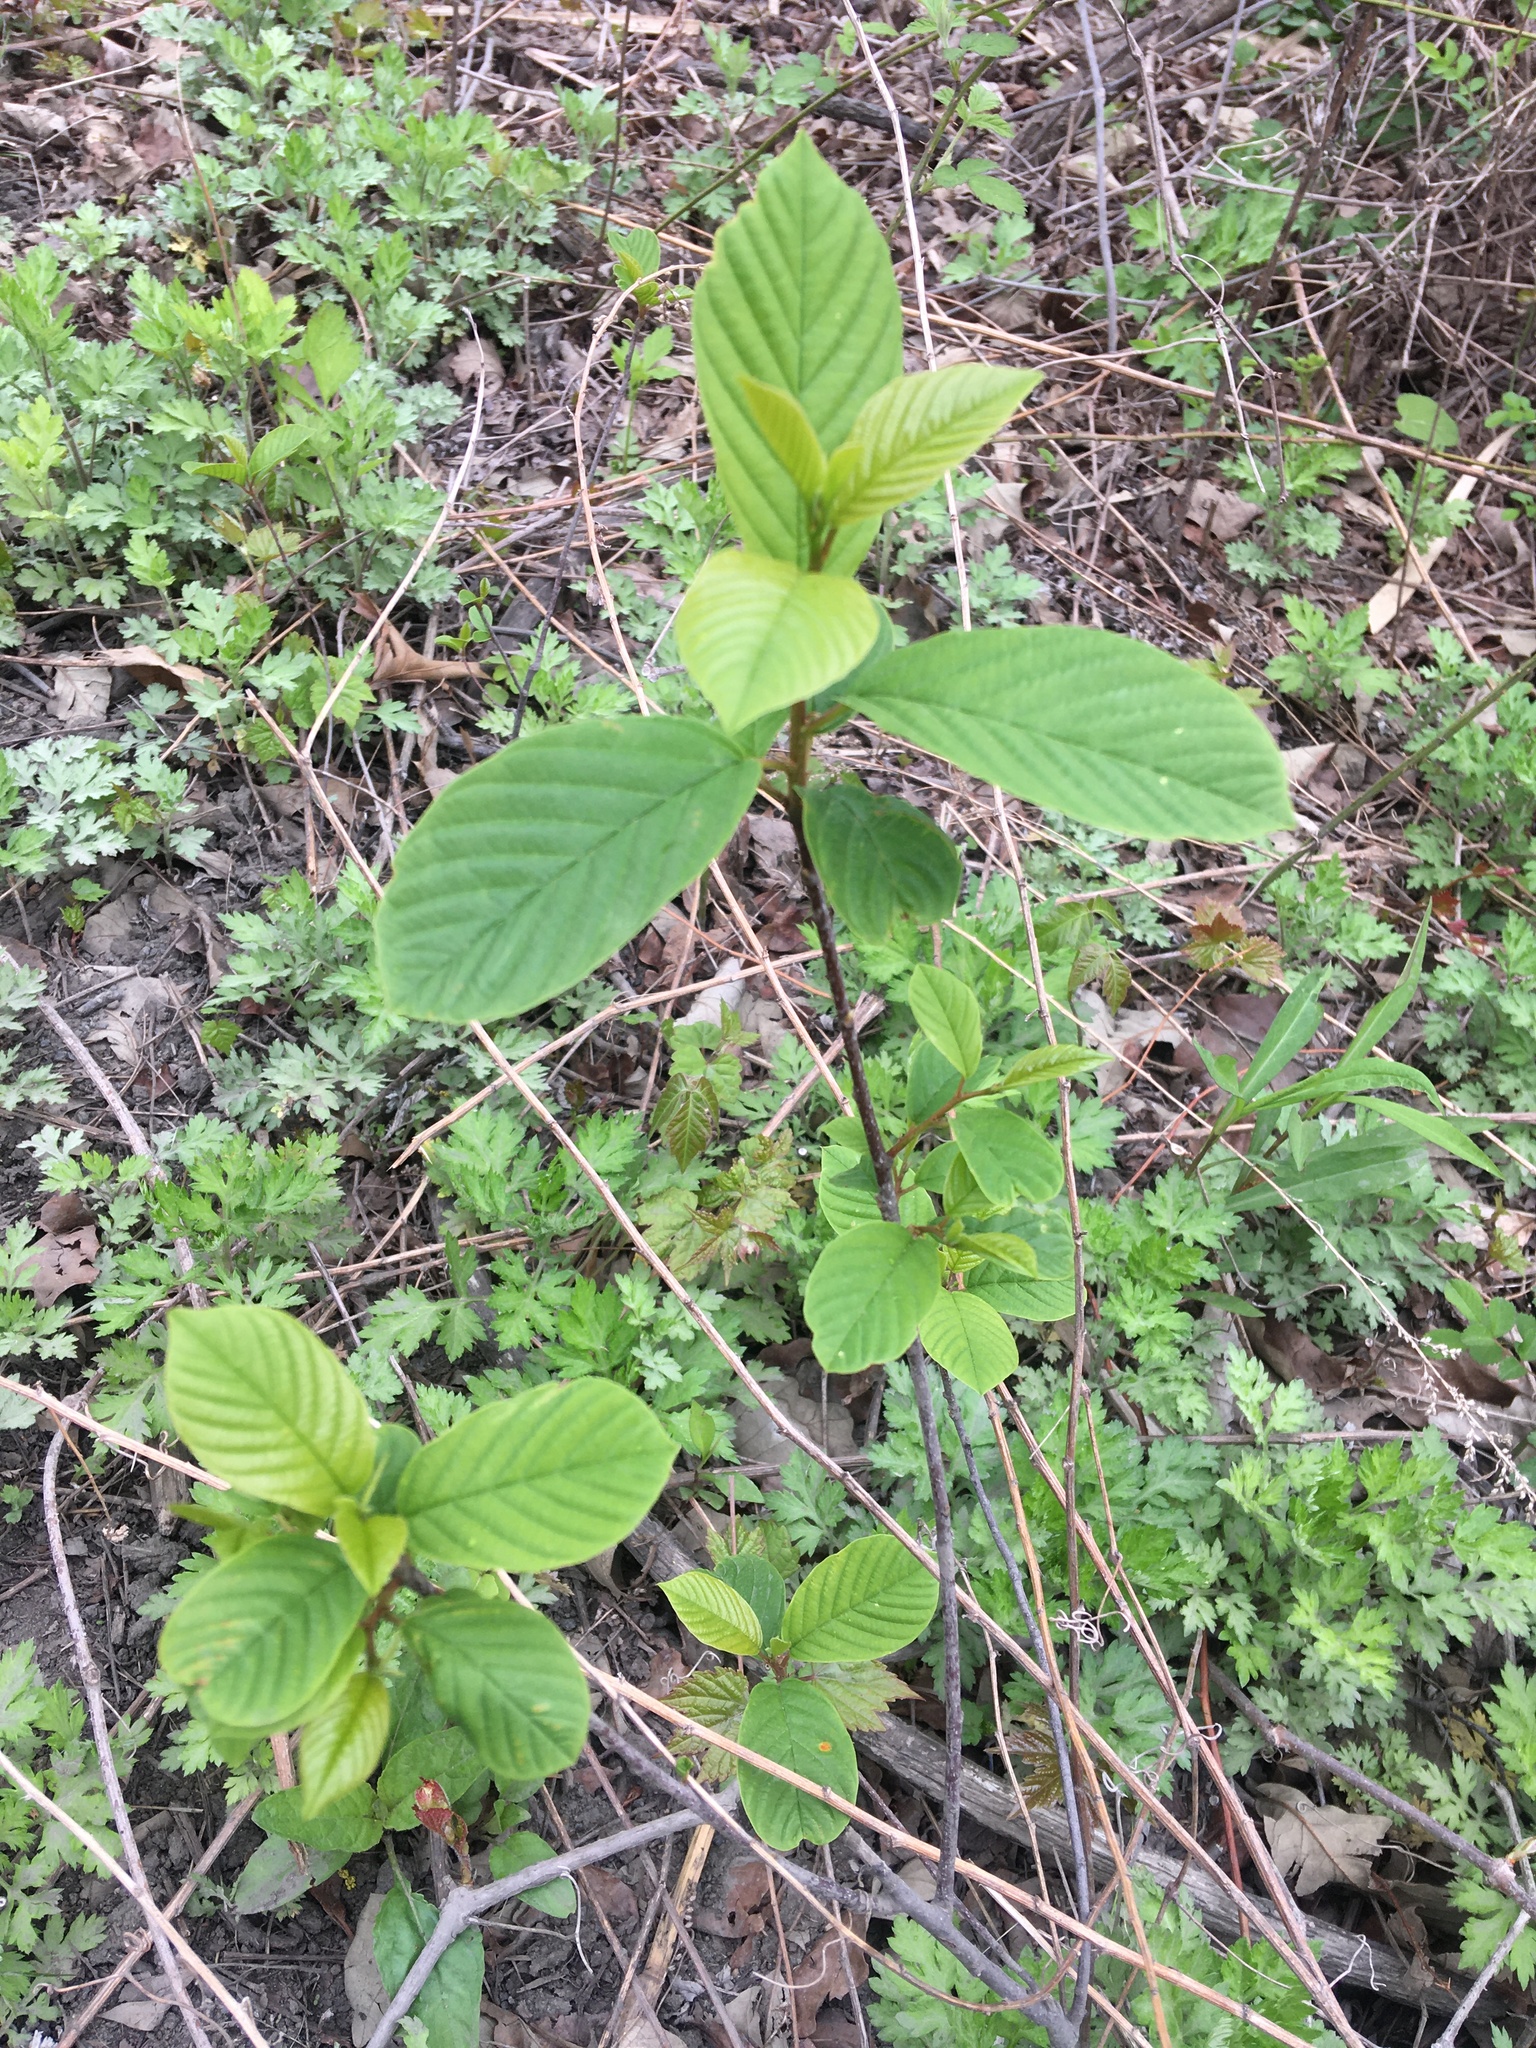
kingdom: Plantae
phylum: Tracheophyta
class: Magnoliopsida
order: Rosales
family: Rhamnaceae
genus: Frangula
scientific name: Frangula alnus
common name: Alder buckthorn
